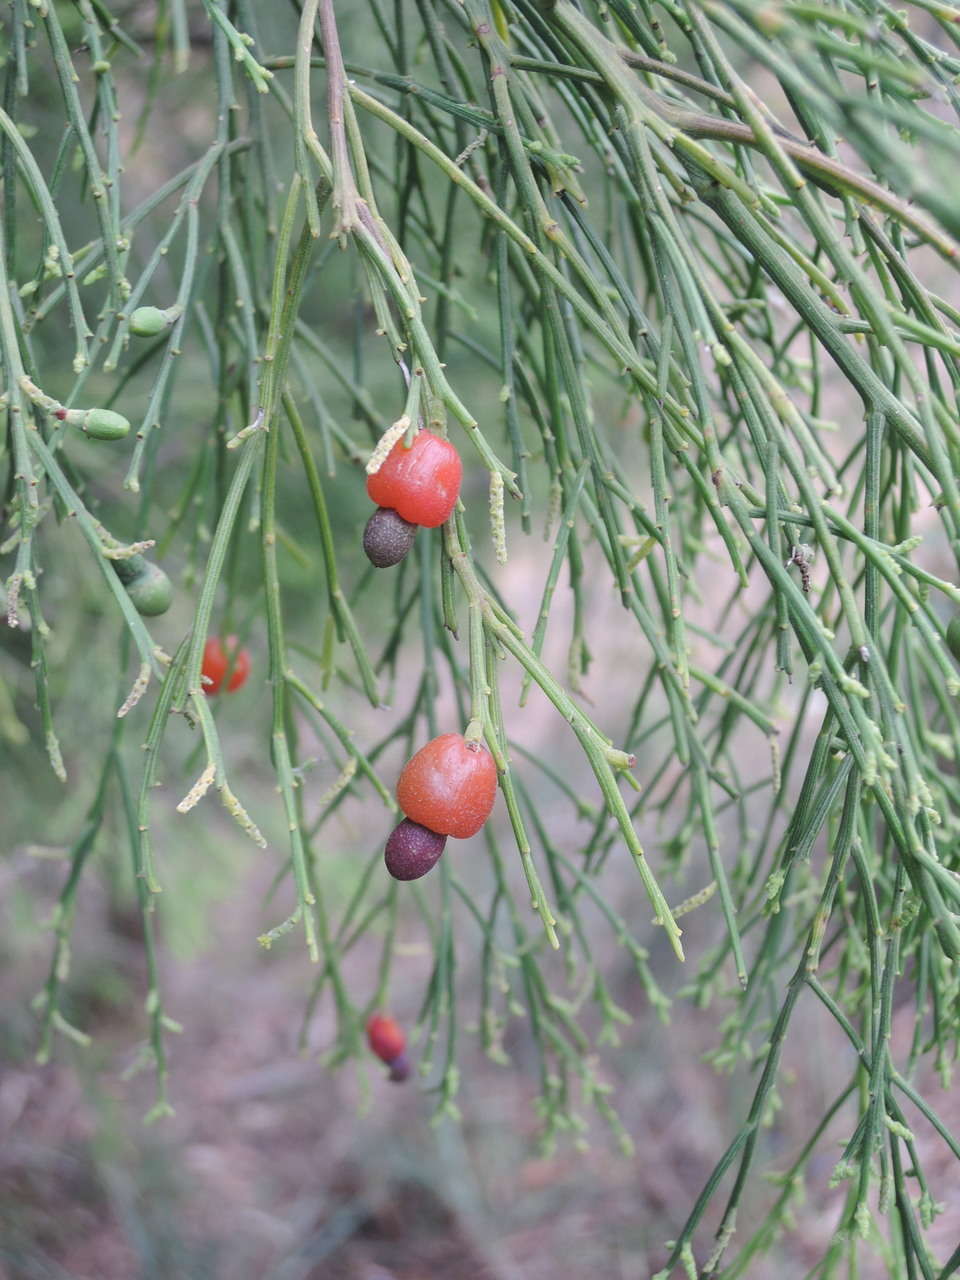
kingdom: Plantae
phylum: Tracheophyta
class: Magnoliopsida
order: Santalales
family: Santalaceae
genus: Exocarpos
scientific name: Exocarpos cupressiformis
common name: Cherry ballart
